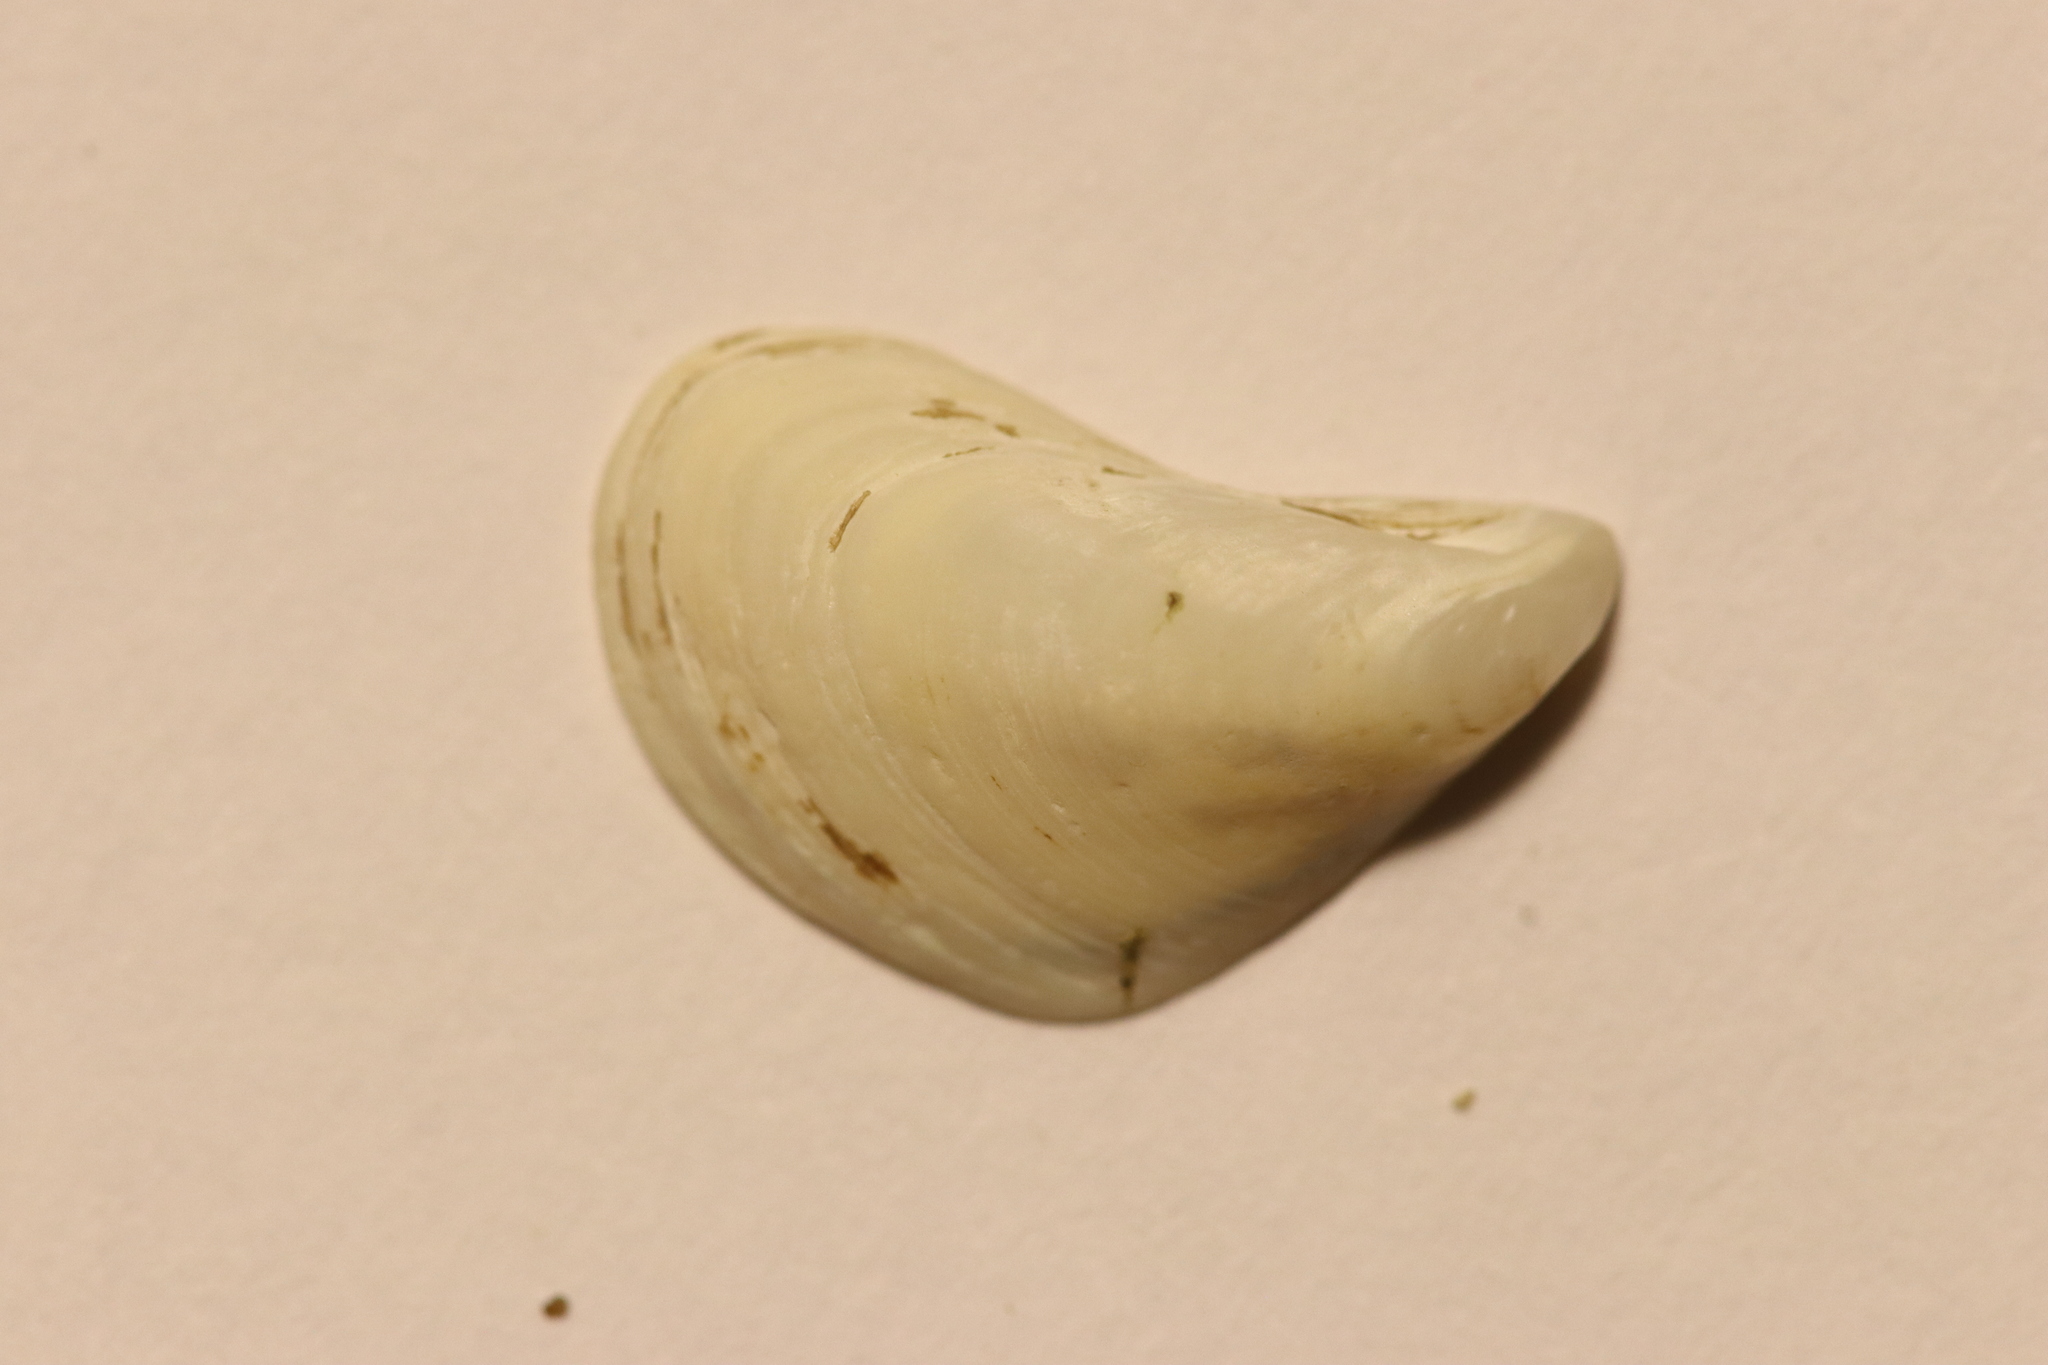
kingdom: Animalia
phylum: Mollusca
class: Bivalvia
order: Myida
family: Dreissenidae
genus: Dreissena
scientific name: Dreissena bugensis
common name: Quagga mussel
